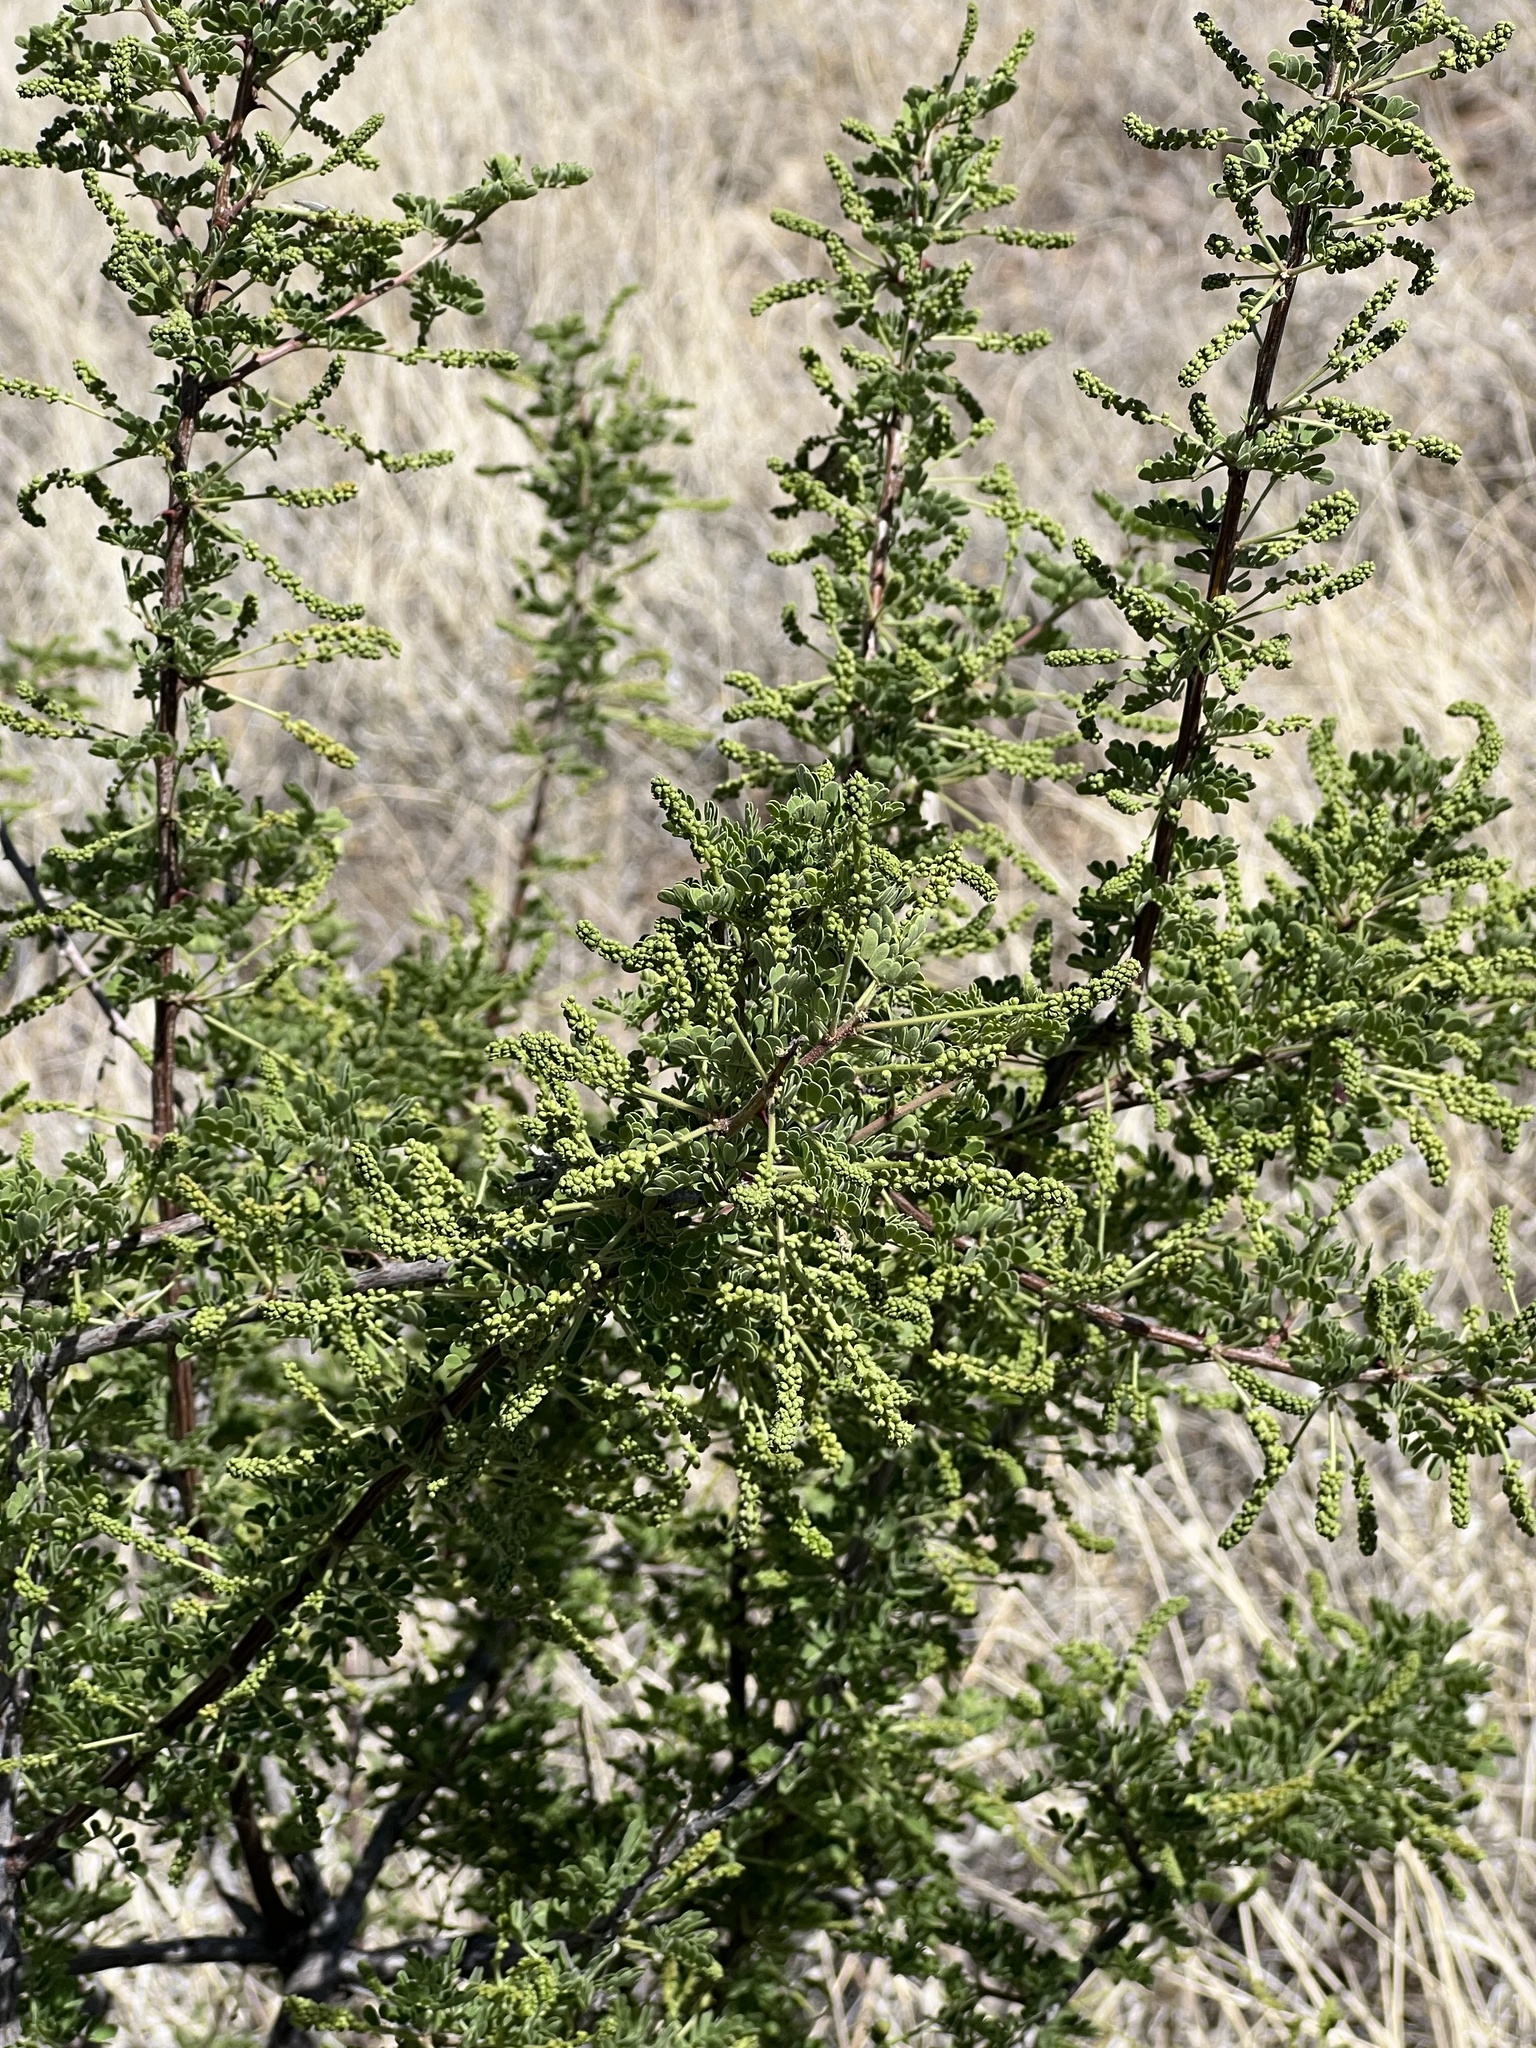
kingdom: Plantae
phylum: Tracheophyta
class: Magnoliopsida
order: Fabales
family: Fabaceae
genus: Senegalia
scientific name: Senegalia greggii
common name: Texas-mimosa
